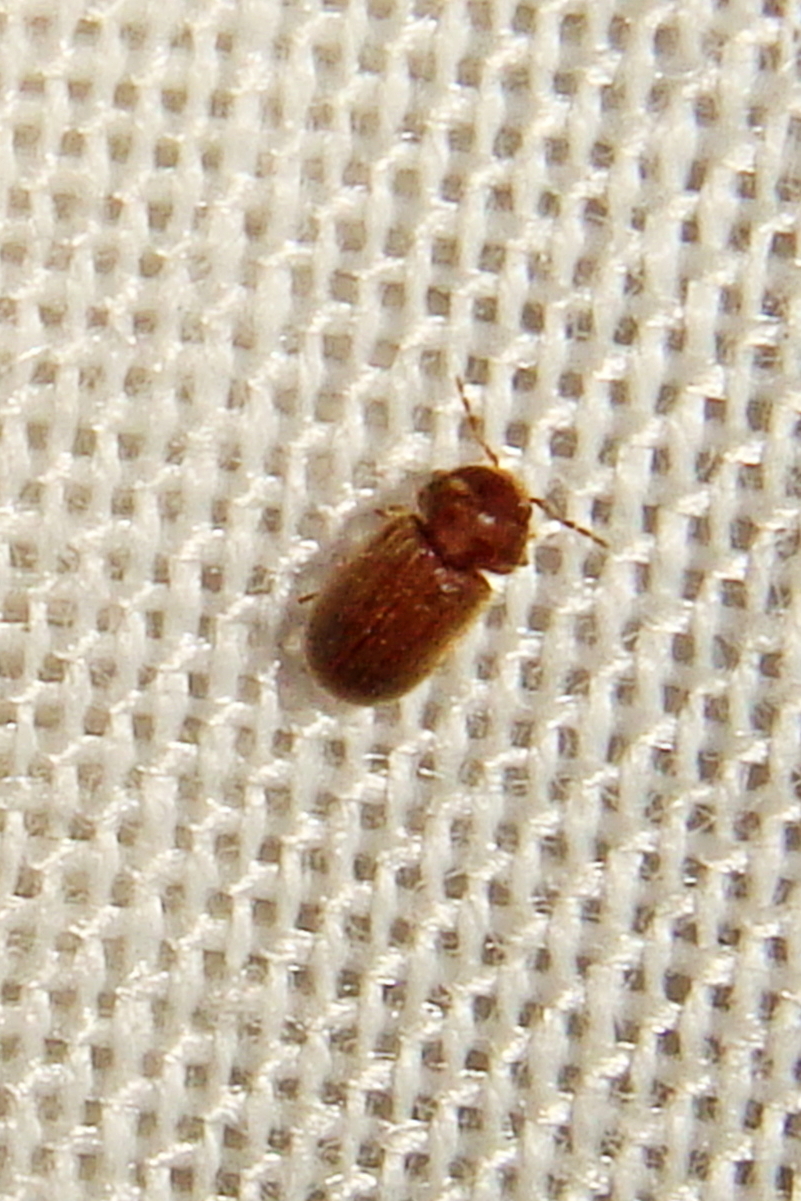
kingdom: Animalia
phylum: Arthropoda
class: Insecta
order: Coleoptera
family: Anobiidae
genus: Stegobium
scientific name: Stegobium paniceum
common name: Drugstore beetle
